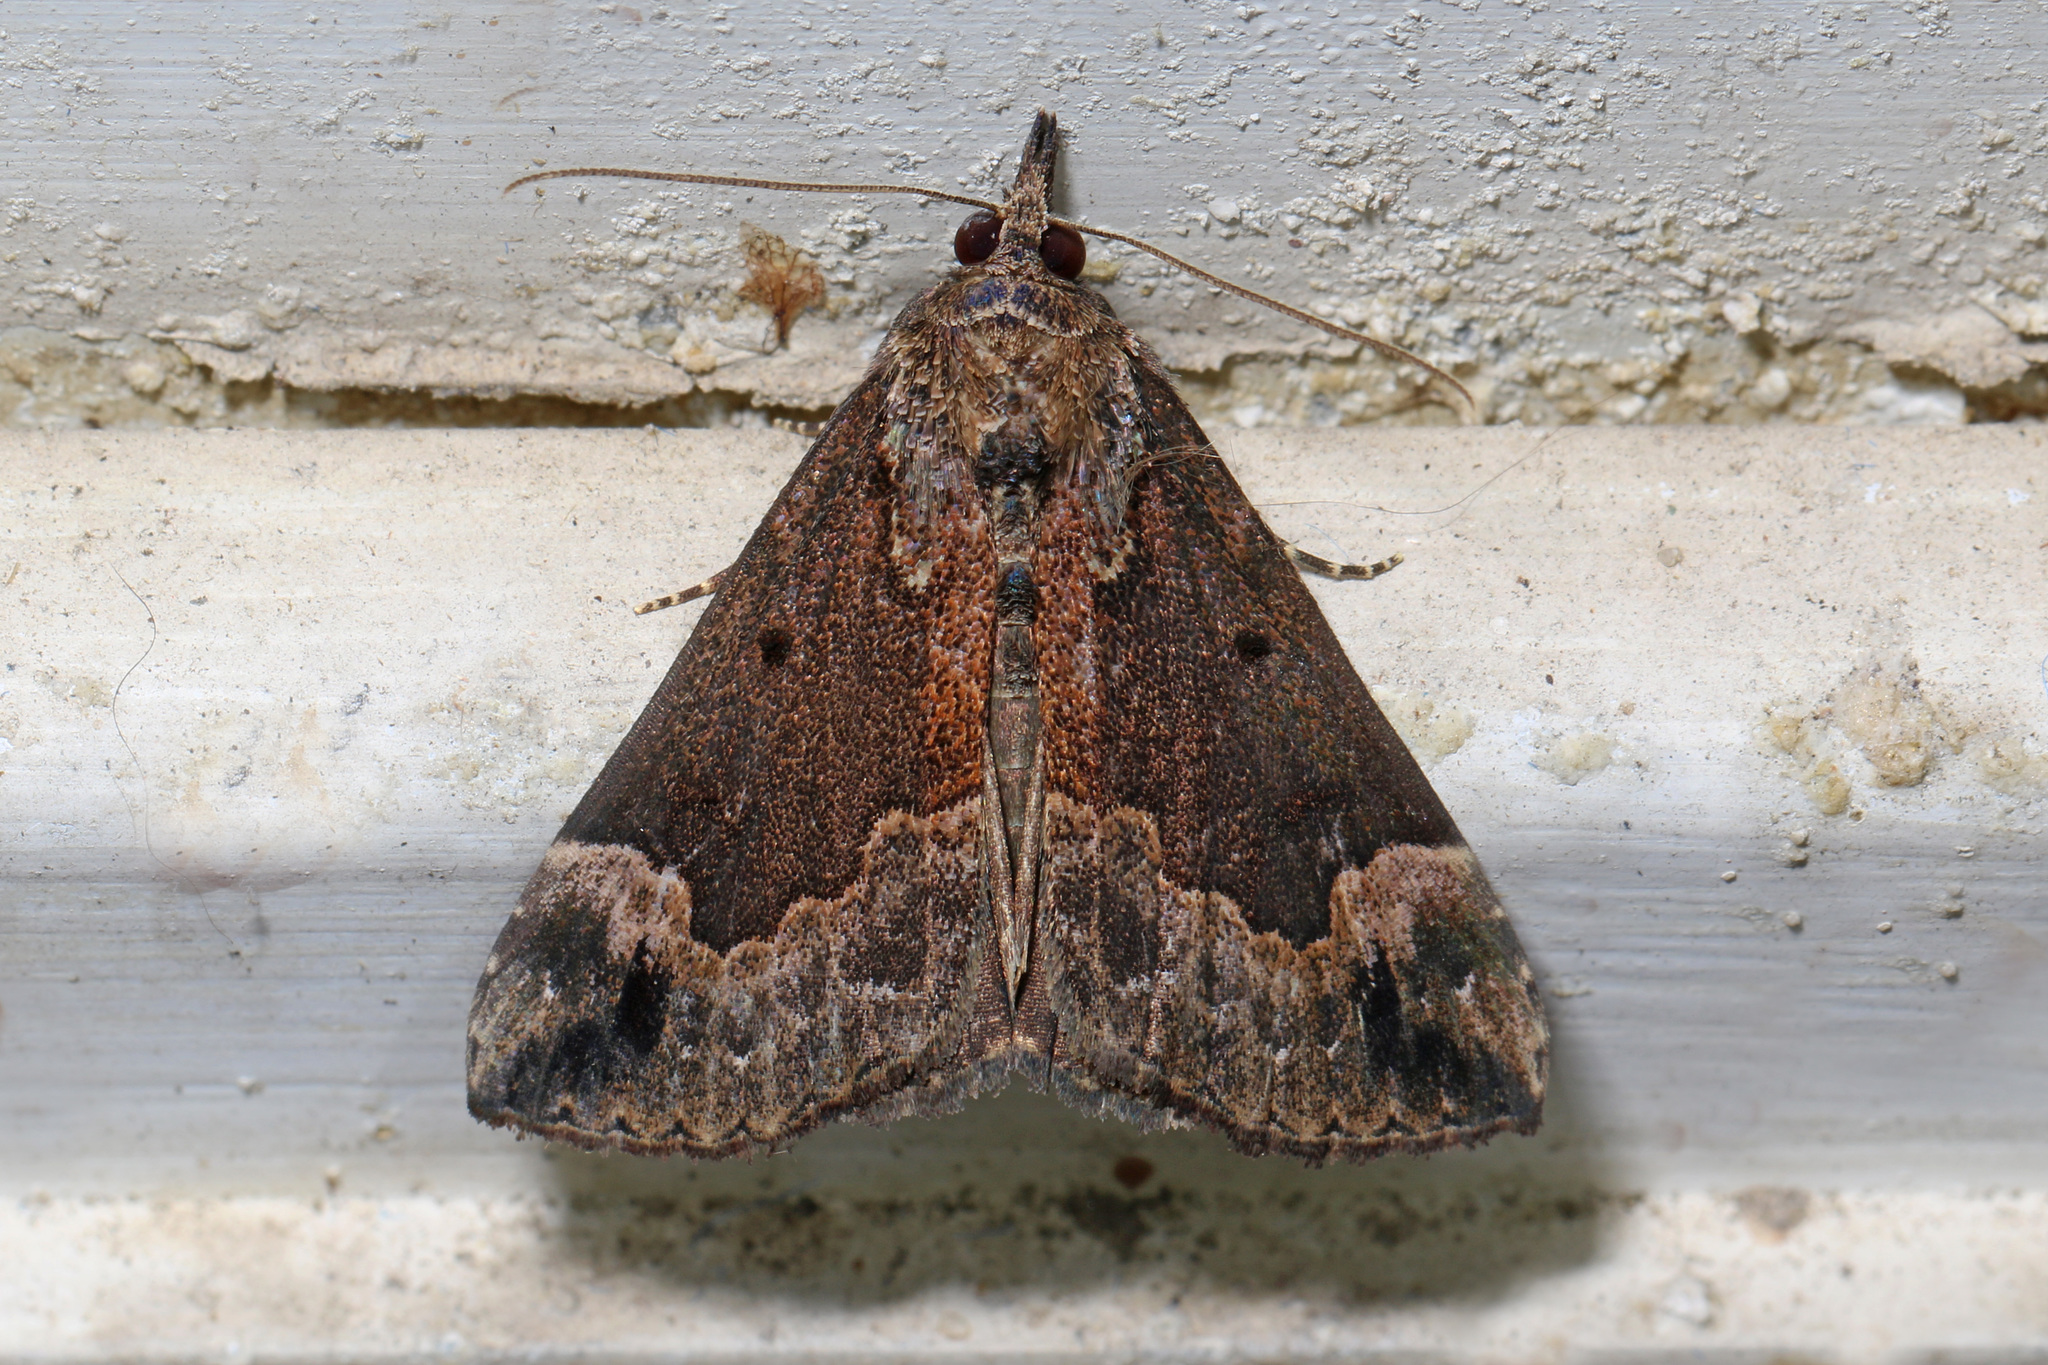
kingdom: Animalia
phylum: Arthropoda
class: Insecta
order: Lepidoptera
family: Erebidae
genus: Hypena
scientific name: Hypena baltimoralis
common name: Baltimore snout
